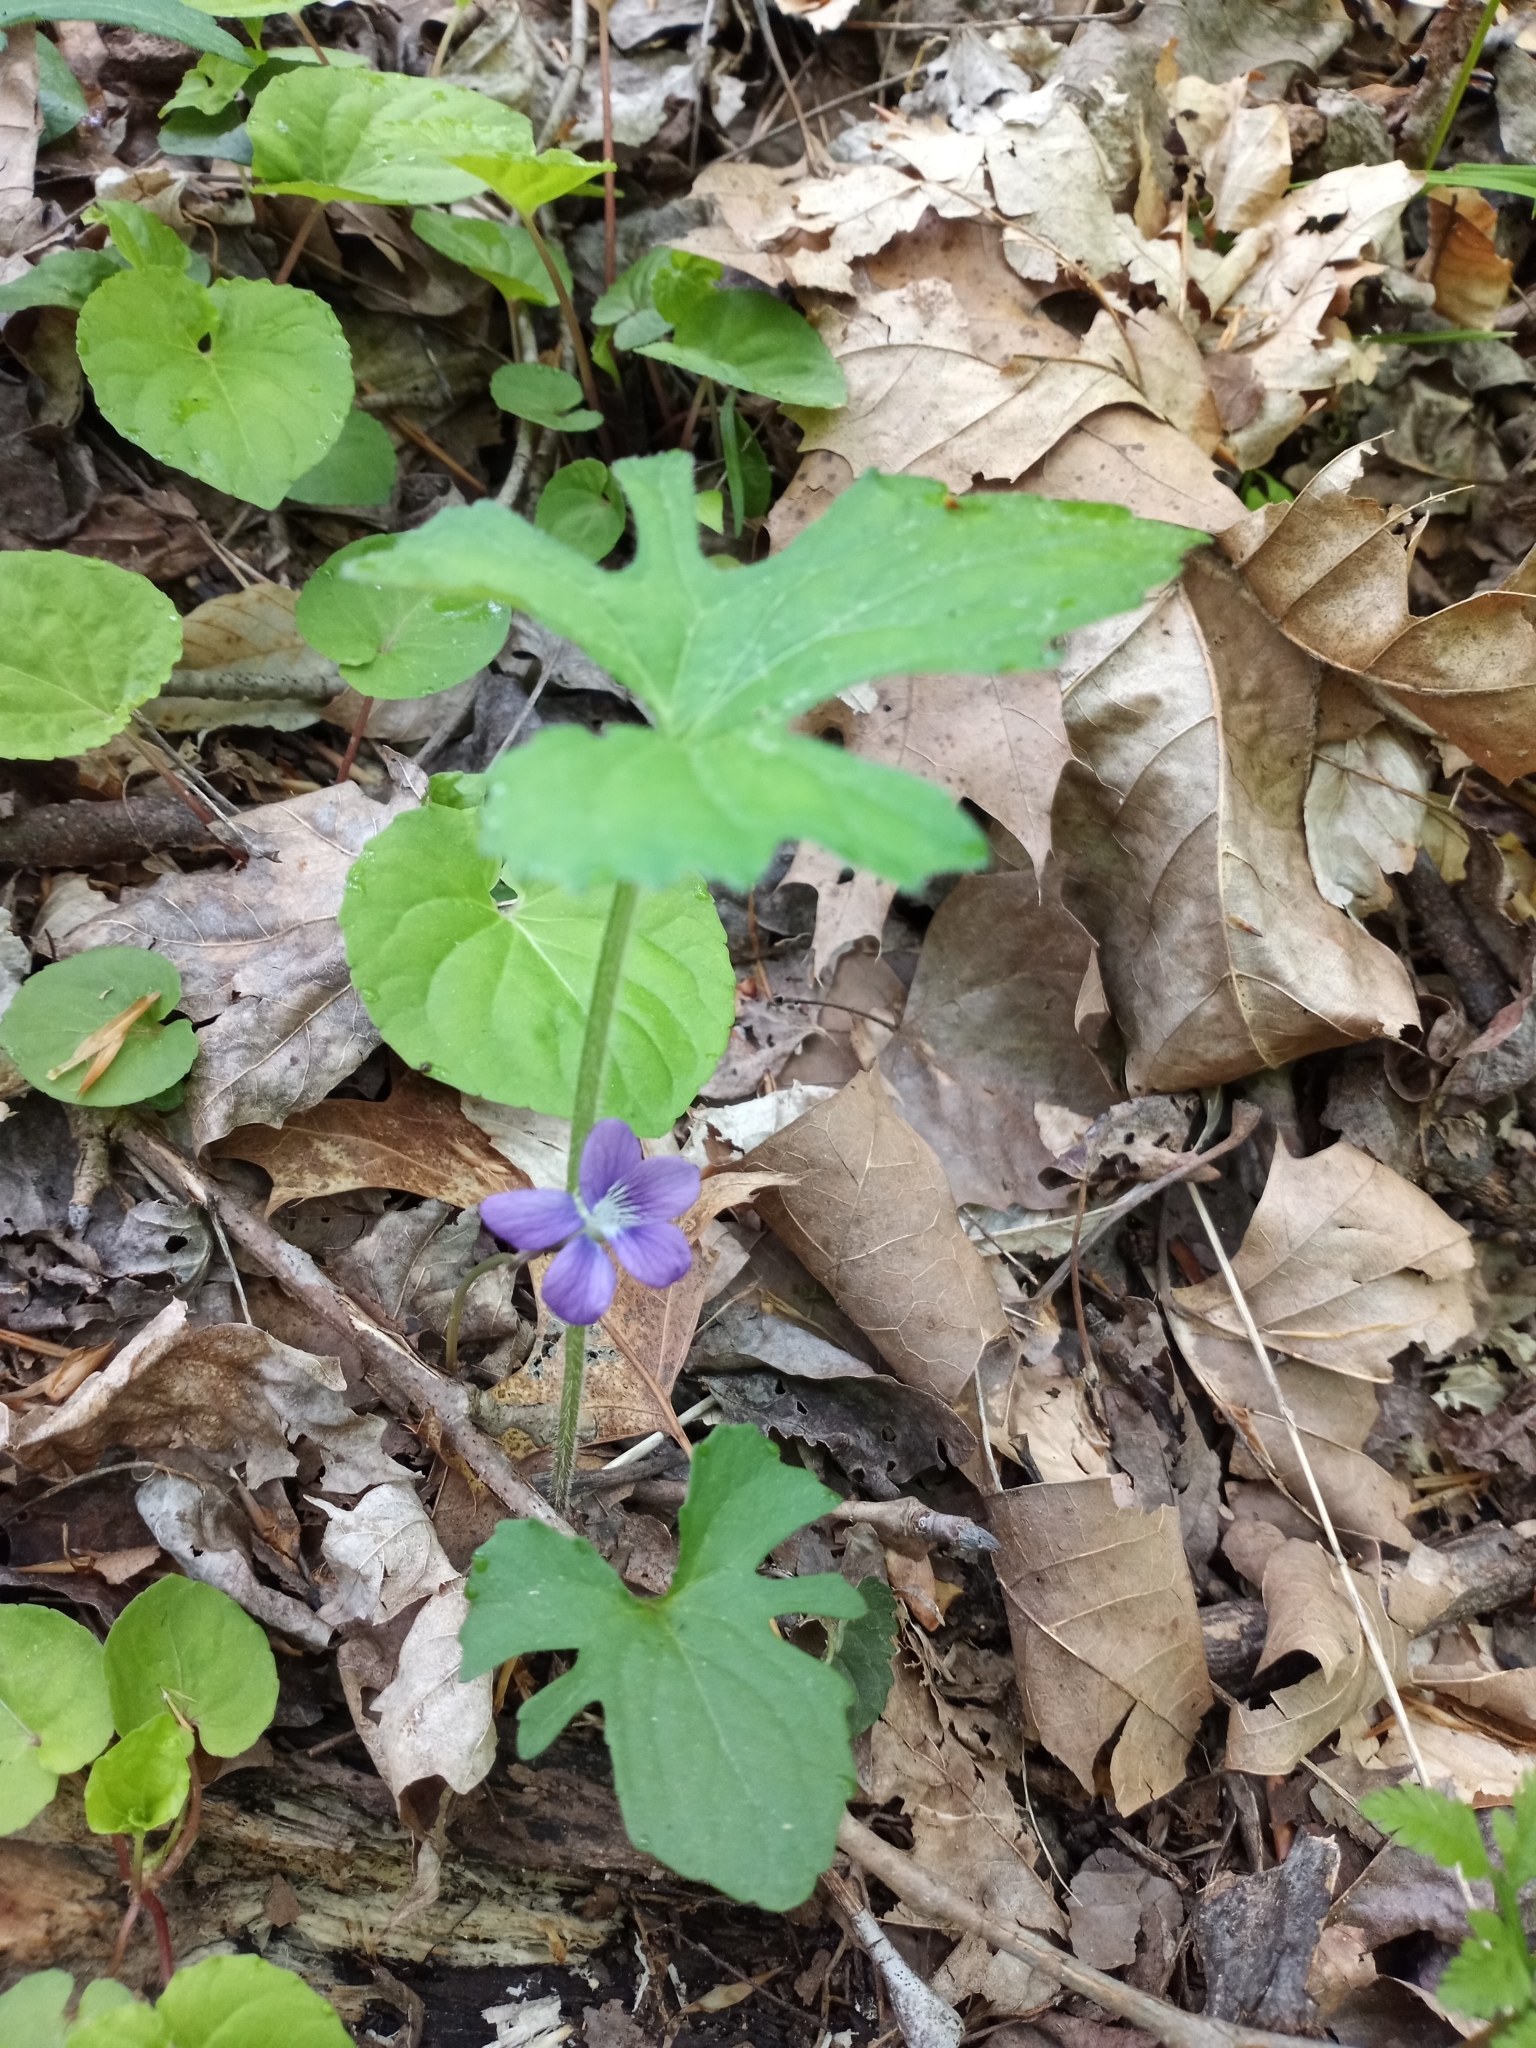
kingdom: Plantae
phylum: Tracheophyta
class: Magnoliopsida
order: Malpighiales
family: Violaceae
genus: Viola
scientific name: Viola palmata
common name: Early blue violet
